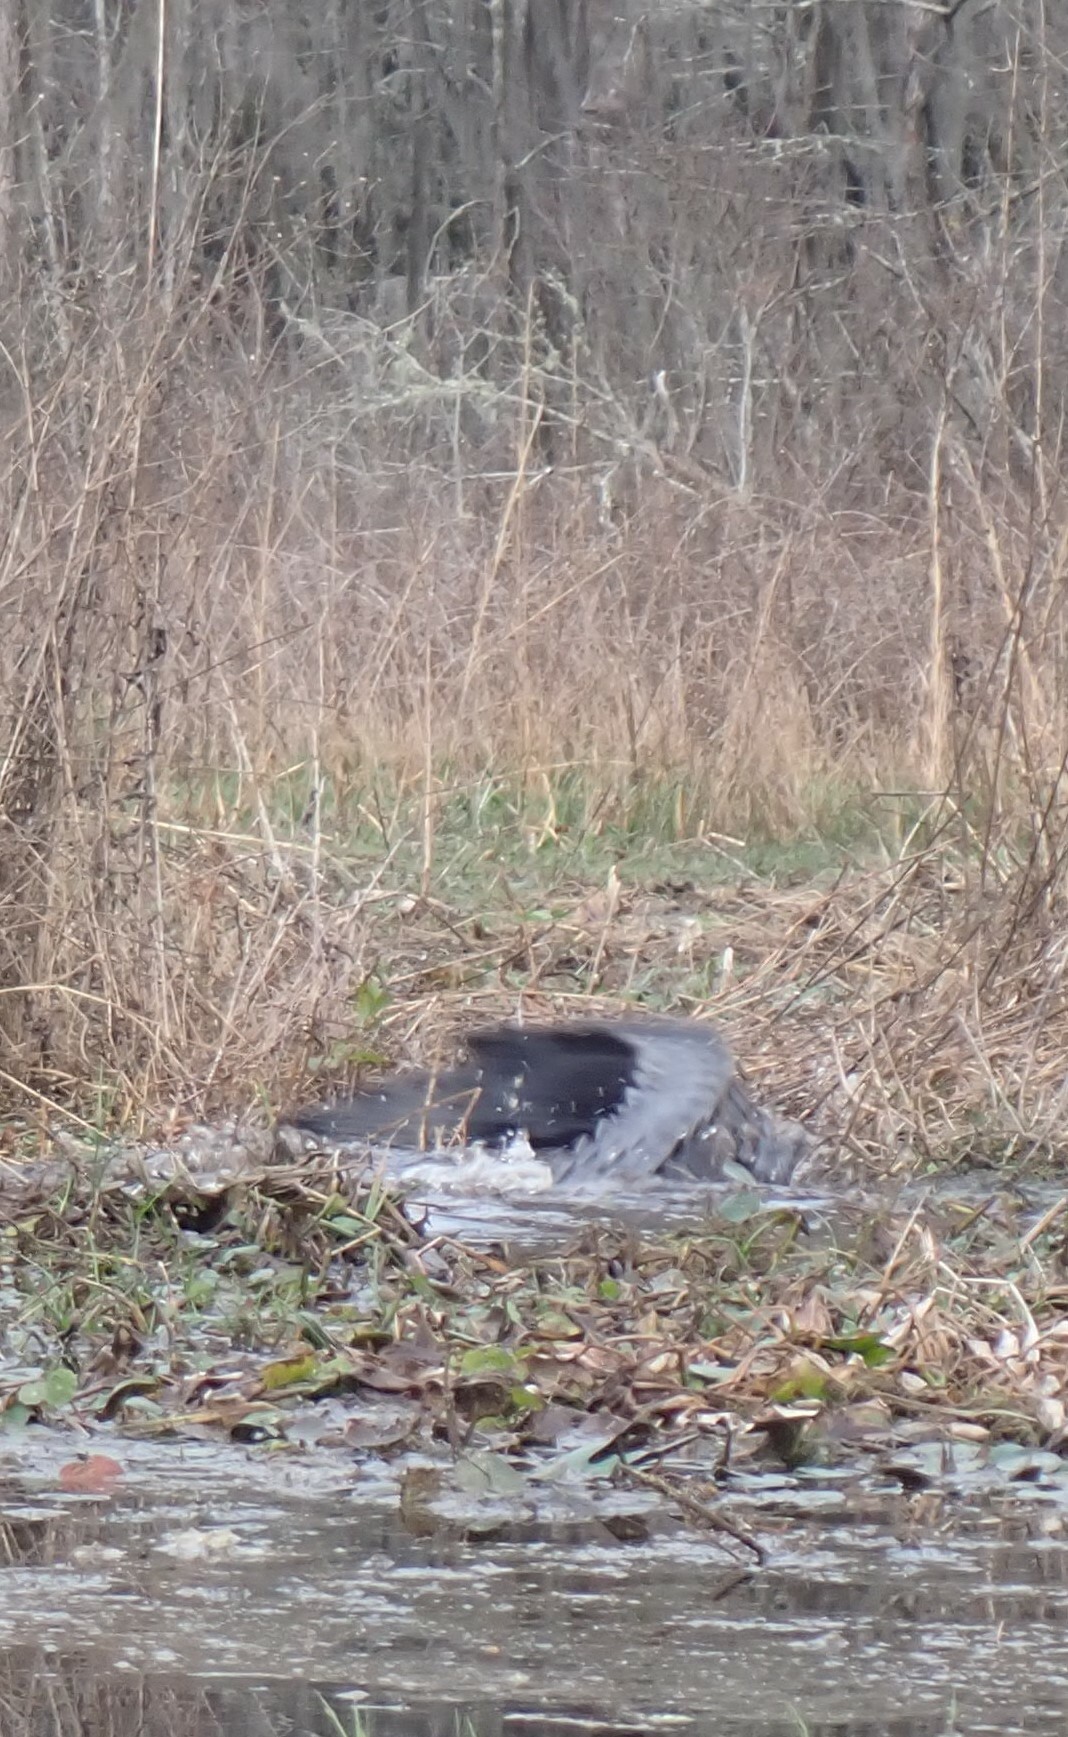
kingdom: Animalia
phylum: Chordata
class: Crocodylia
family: Alligatoridae
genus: Alligator
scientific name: Alligator mississippiensis
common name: American alligator
